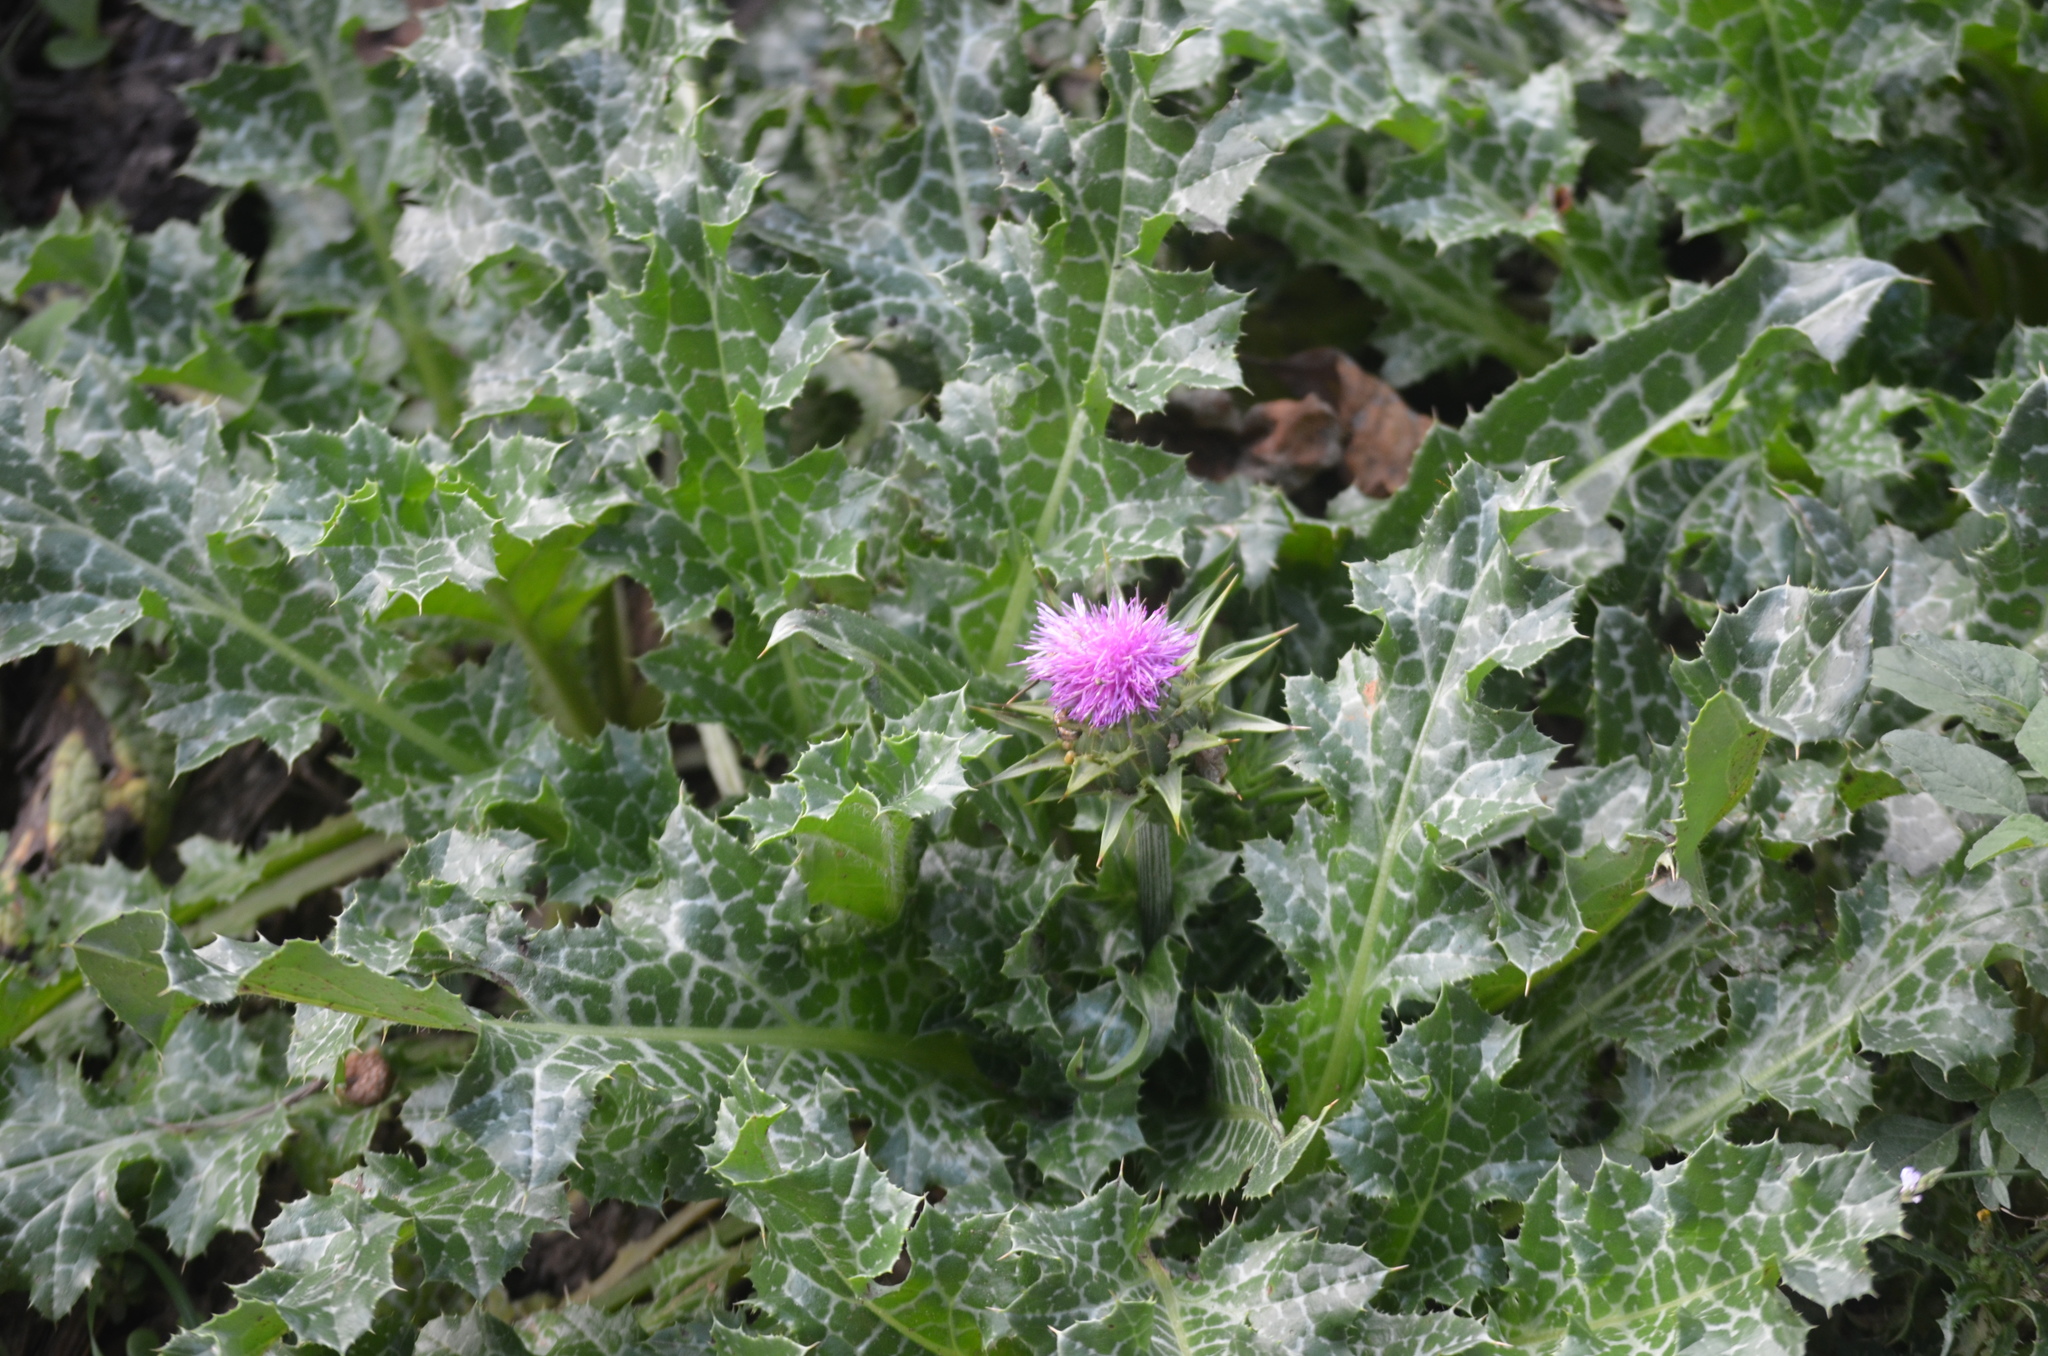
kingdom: Plantae
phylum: Tracheophyta
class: Magnoliopsida
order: Asterales
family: Asteraceae
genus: Silybum
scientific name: Silybum marianum
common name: Milk thistle
